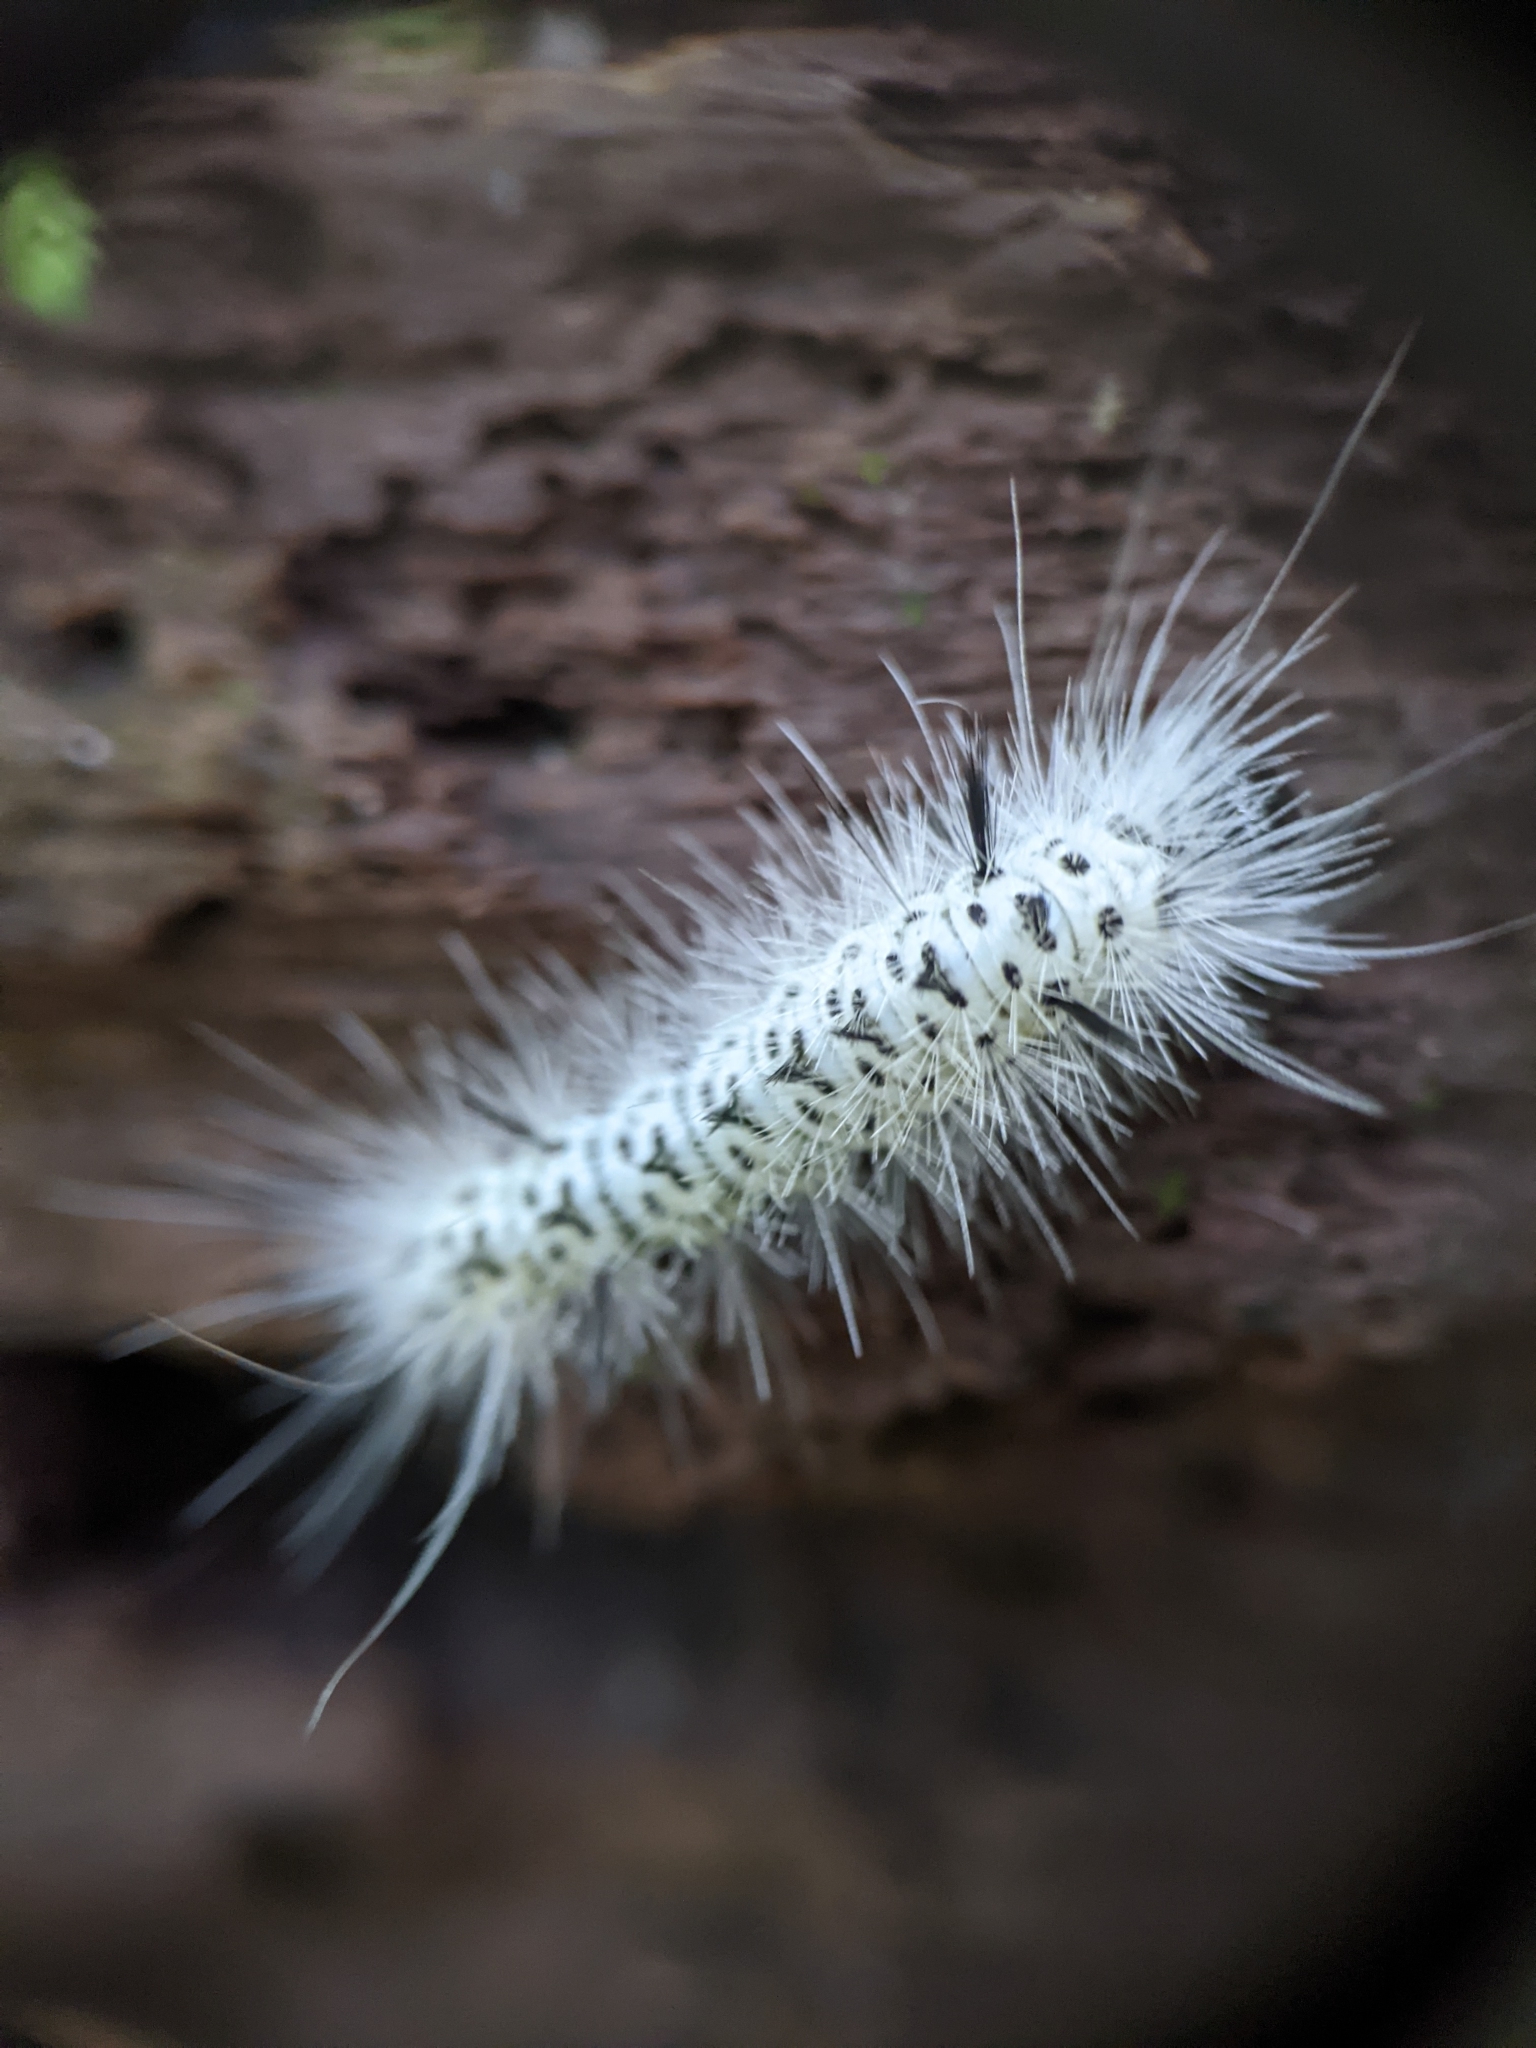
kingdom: Animalia
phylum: Arthropoda
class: Insecta
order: Lepidoptera
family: Erebidae
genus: Lophocampa
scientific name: Lophocampa caryae
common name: Hickory tussock moth
